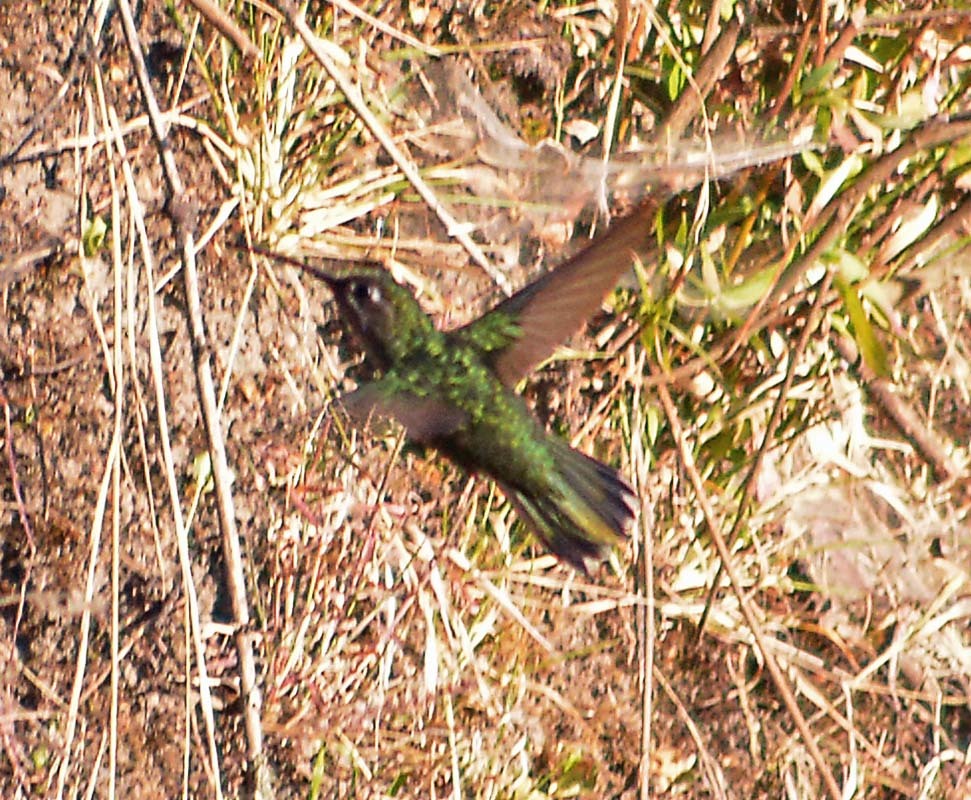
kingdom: Animalia
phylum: Chordata
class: Aves
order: Apodiformes
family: Trochilidae
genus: Eugenes
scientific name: Eugenes fulgens
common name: Magnificent hummingbird
